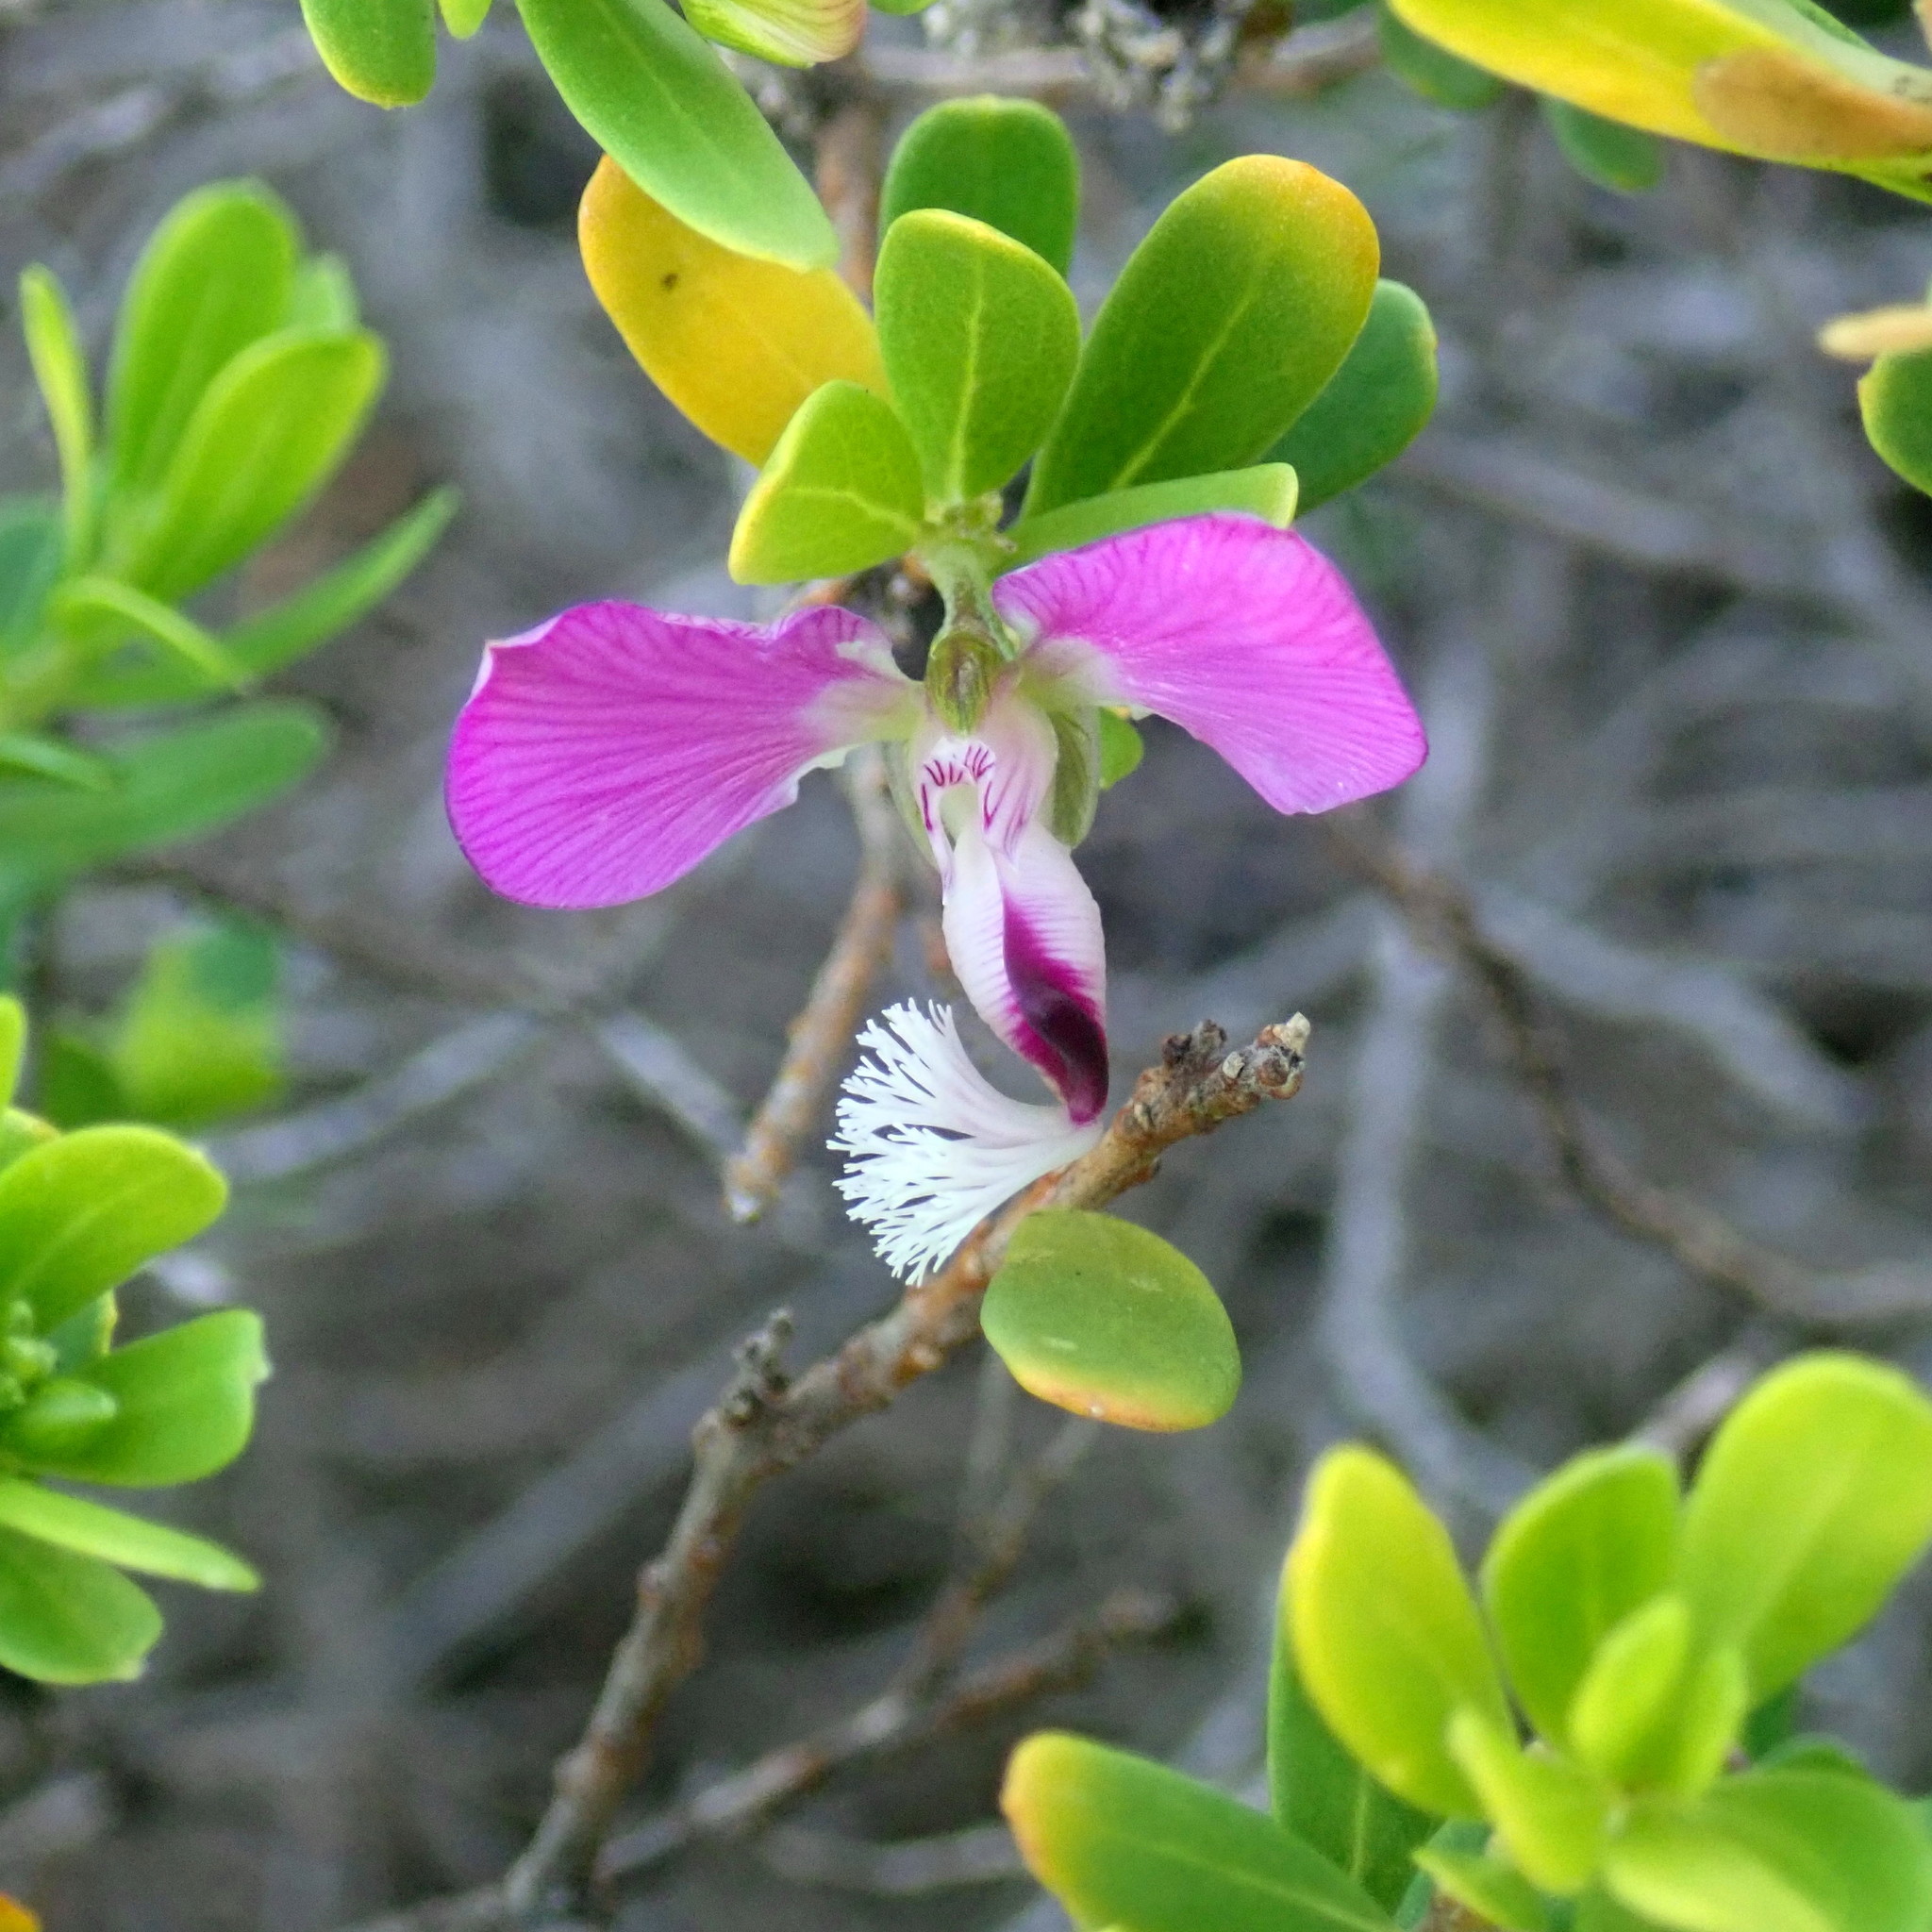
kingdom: Plantae
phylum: Tracheophyta
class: Magnoliopsida
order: Fabales
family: Polygalaceae
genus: Polygala
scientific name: Polygala myrtifolia
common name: Myrtle-leaf milkwort
